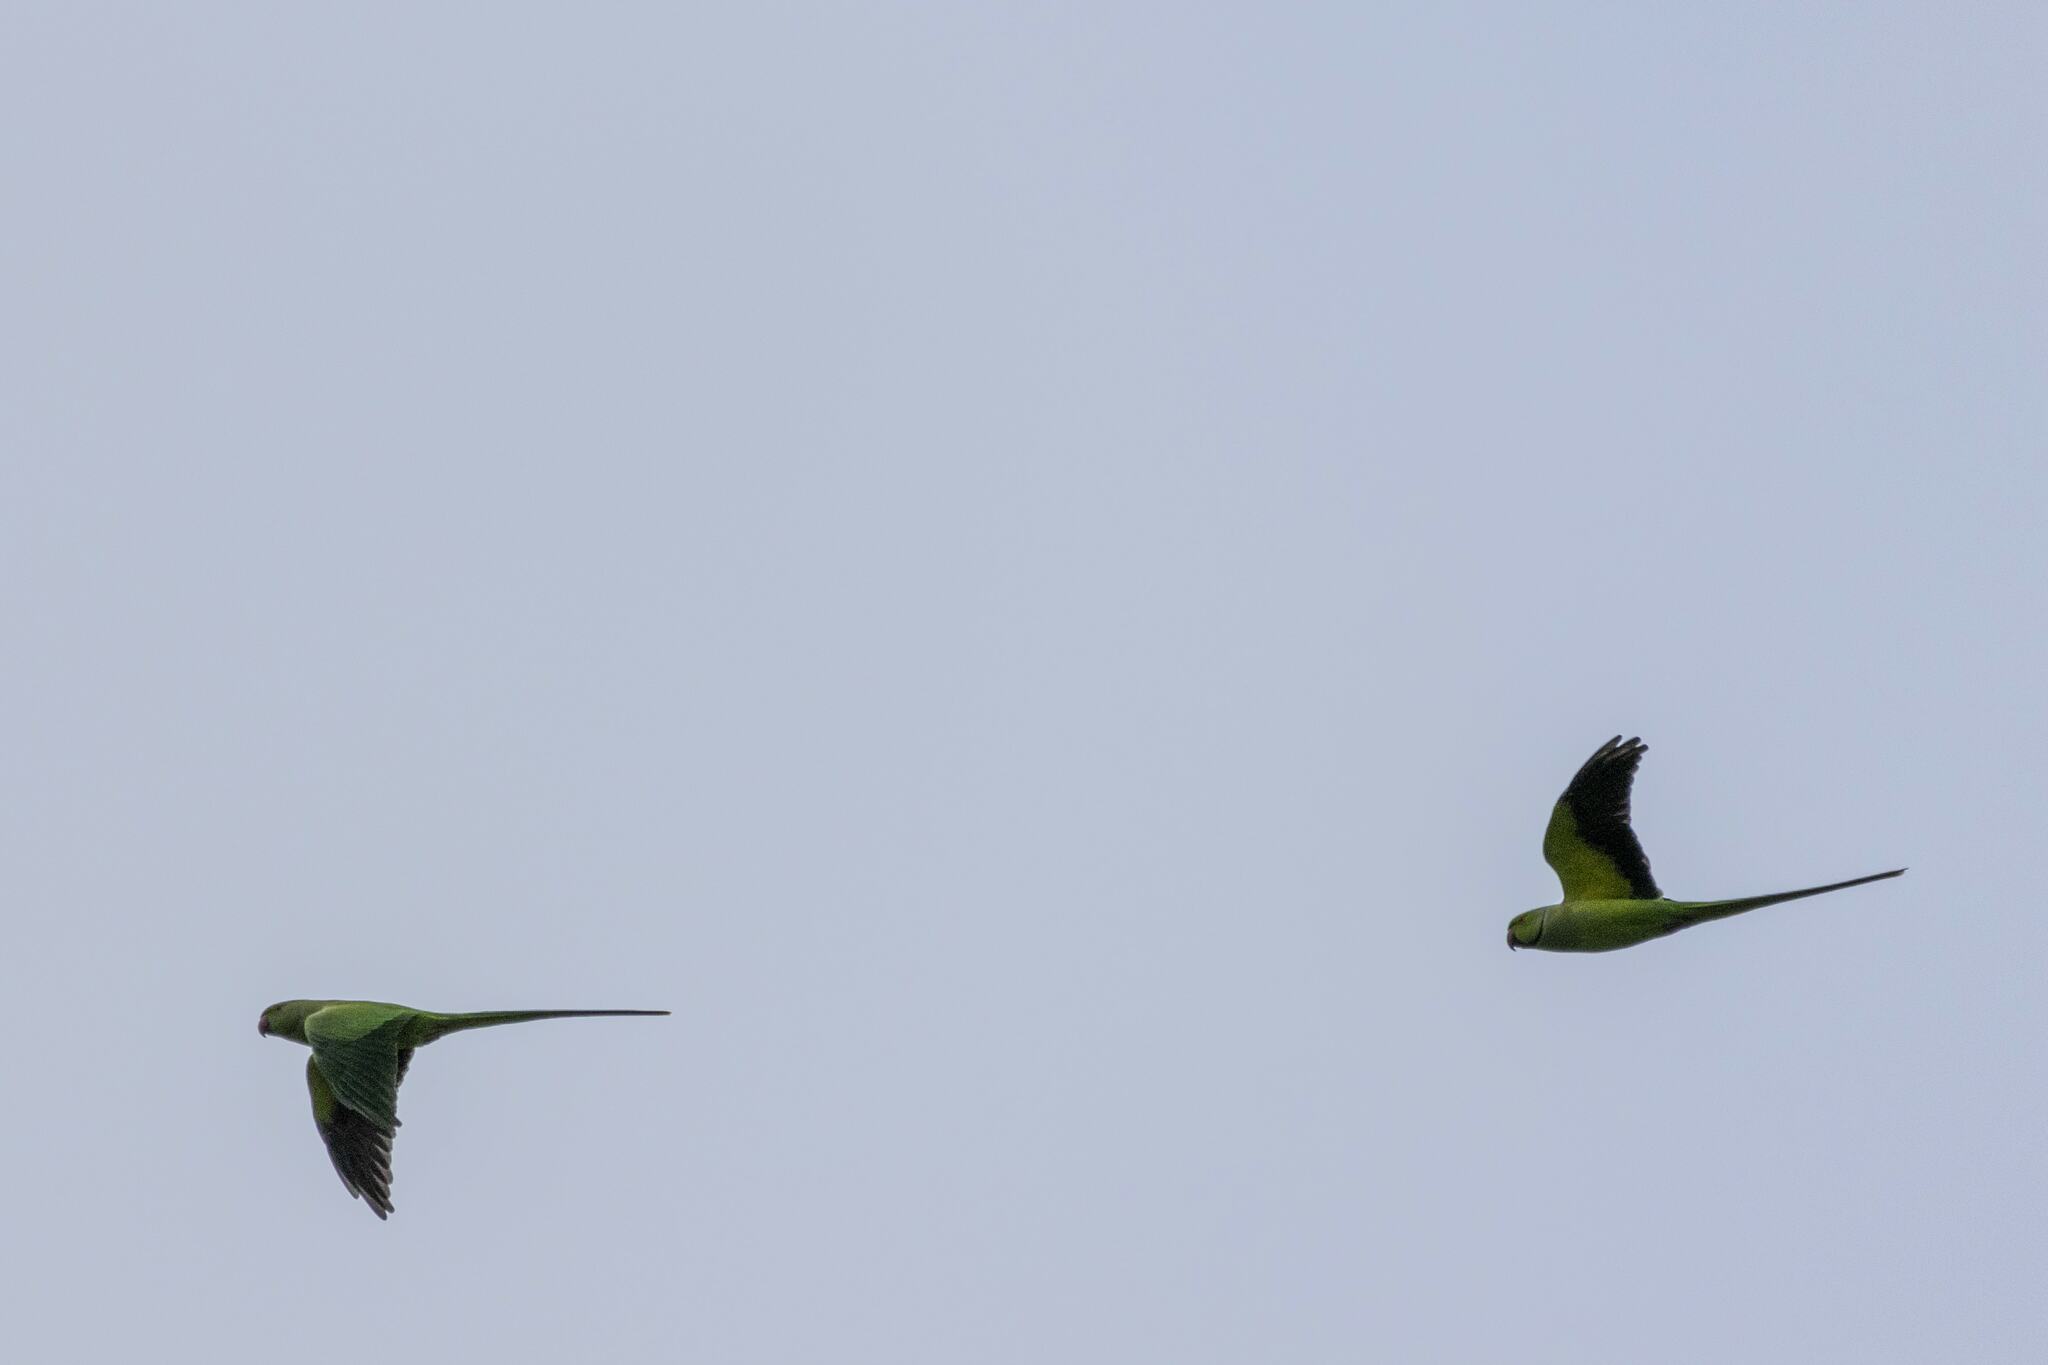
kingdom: Animalia
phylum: Chordata
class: Aves
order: Psittaciformes
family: Psittacidae
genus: Psittacula
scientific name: Psittacula krameri
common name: Rose-ringed parakeet
